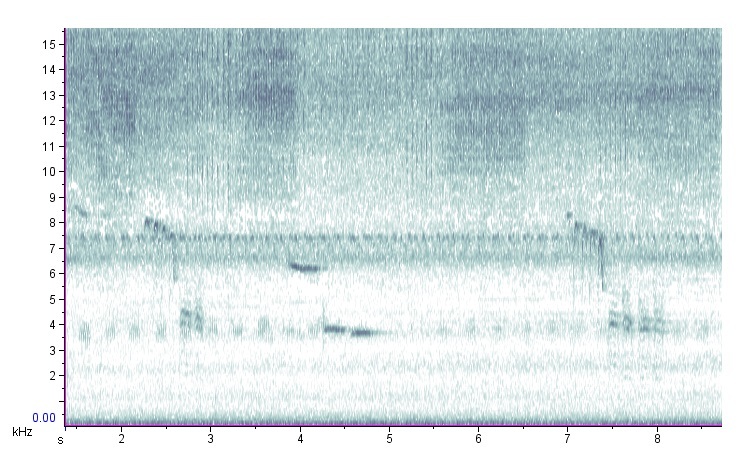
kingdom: Animalia
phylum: Chordata
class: Aves
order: Passeriformes
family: Paridae
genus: Poecile
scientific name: Poecile carolinensis
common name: Carolina chickadee
